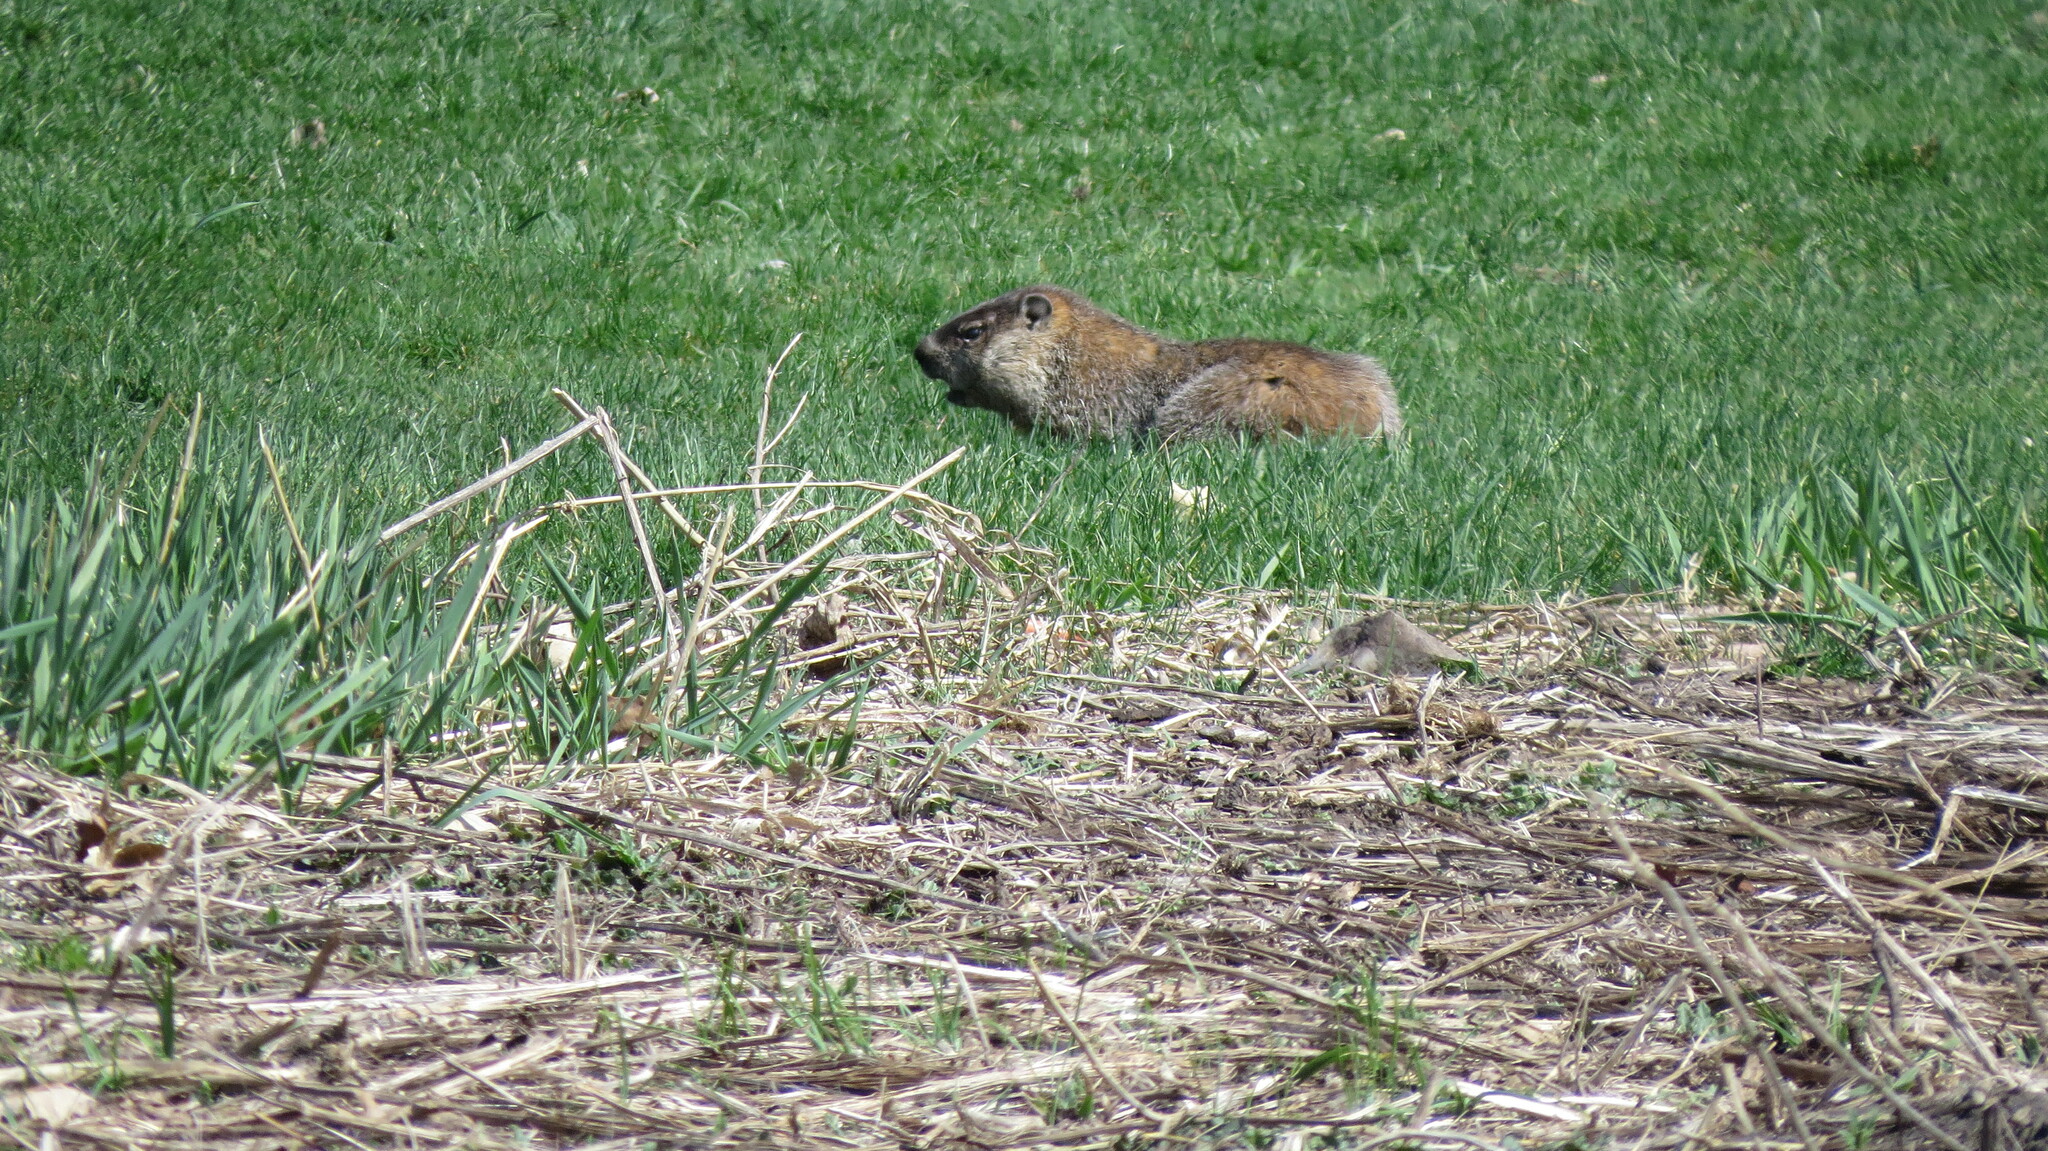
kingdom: Animalia
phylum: Chordata
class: Mammalia
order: Rodentia
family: Sciuridae
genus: Marmota
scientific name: Marmota monax
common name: Groundhog
